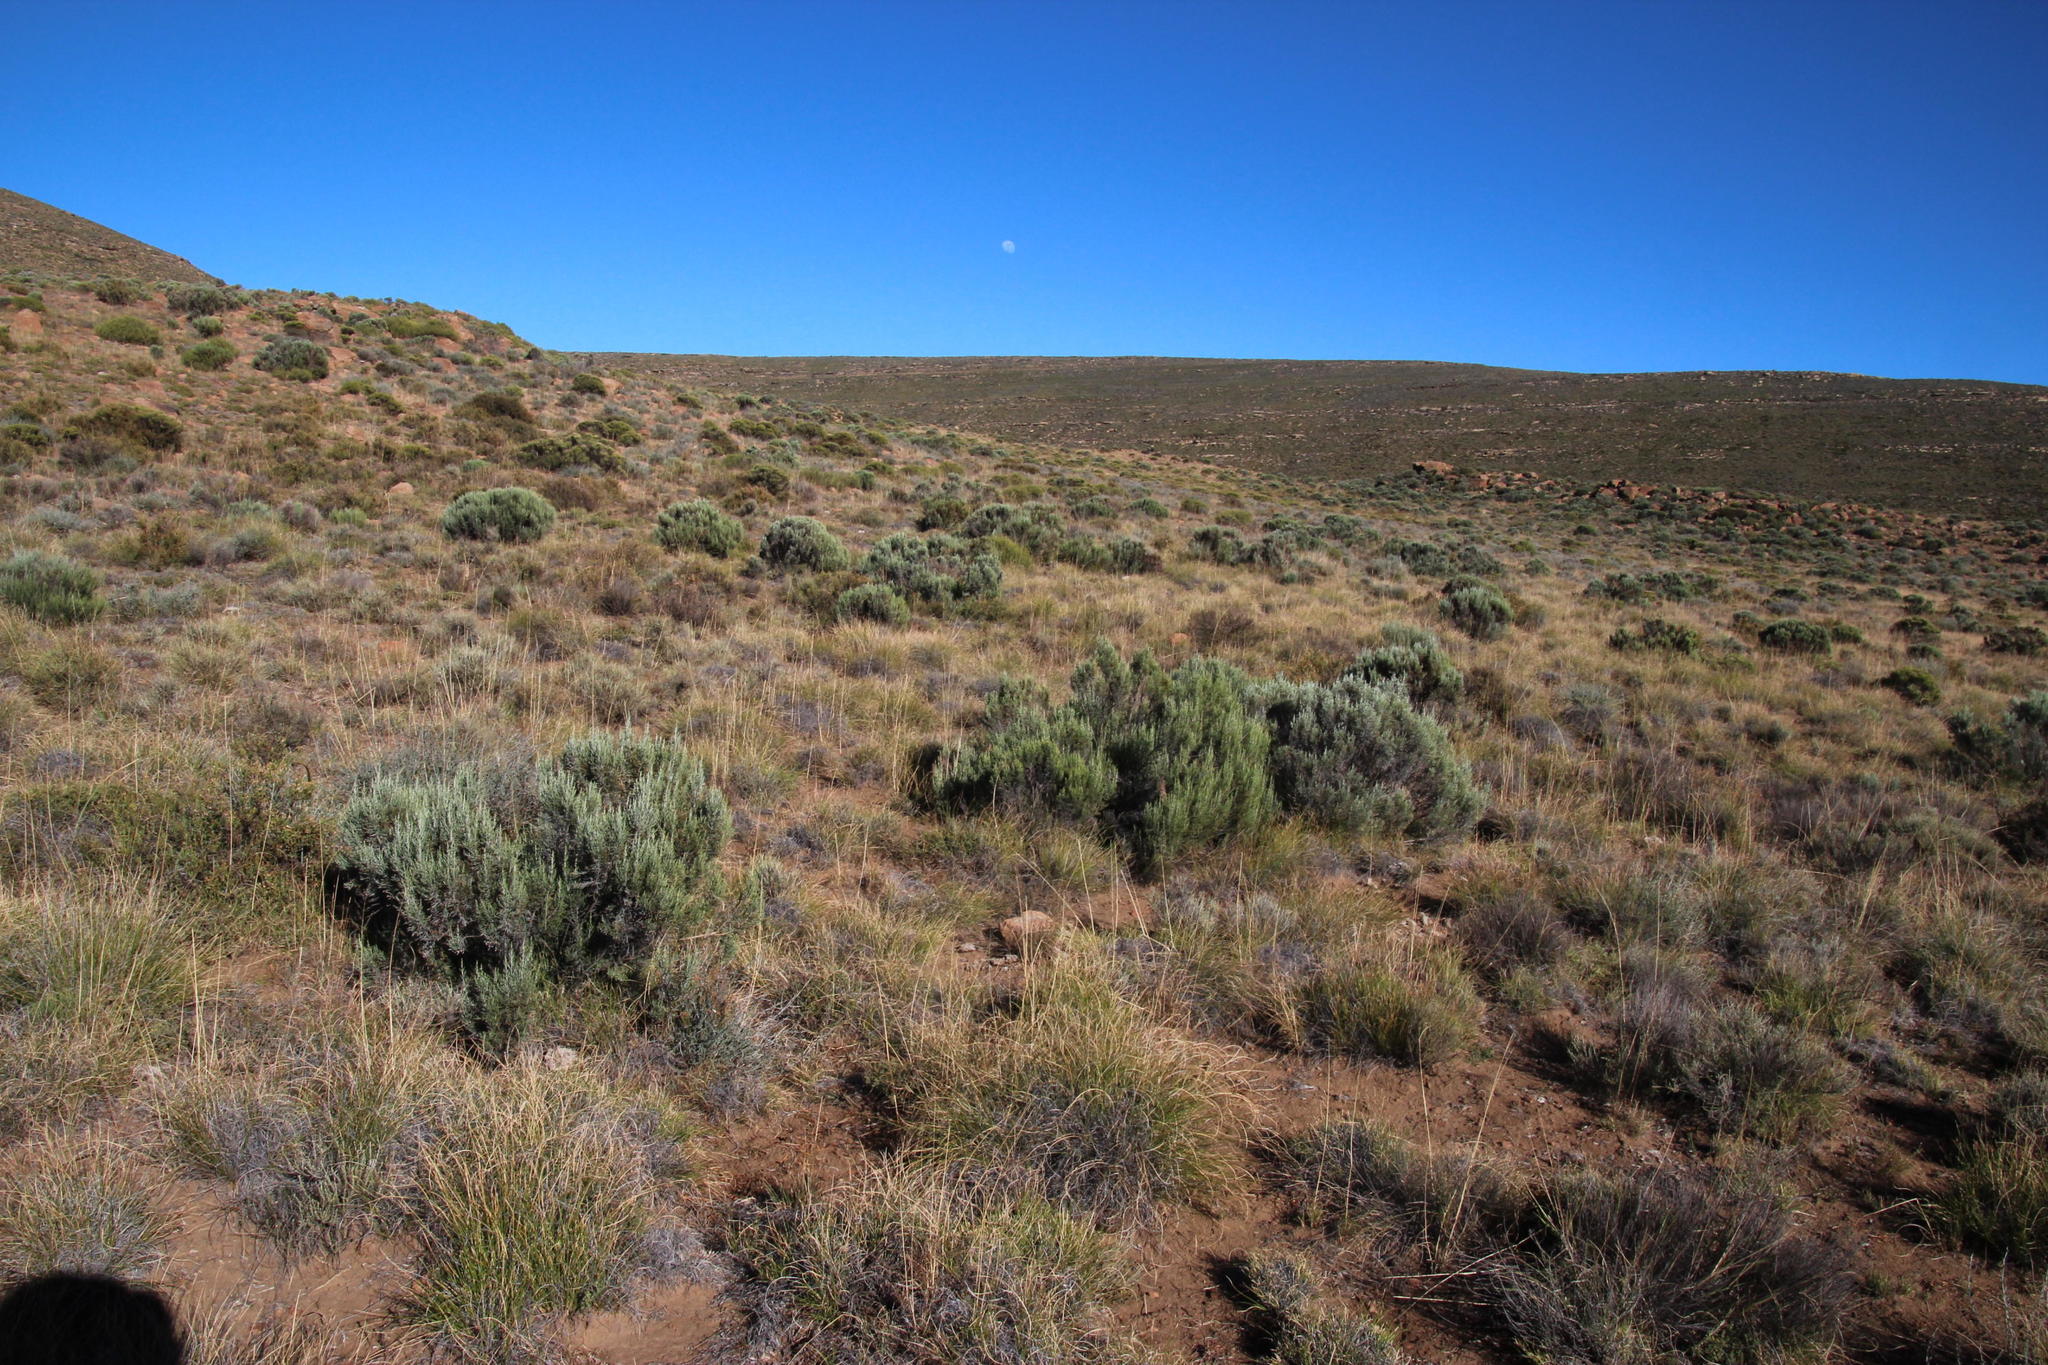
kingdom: Plantae
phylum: Tracheophyta
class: Magnoliopsida
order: Asterales
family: Asteraceae
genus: Dicerothamnus
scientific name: Dicerothamnus rhinocerotis
